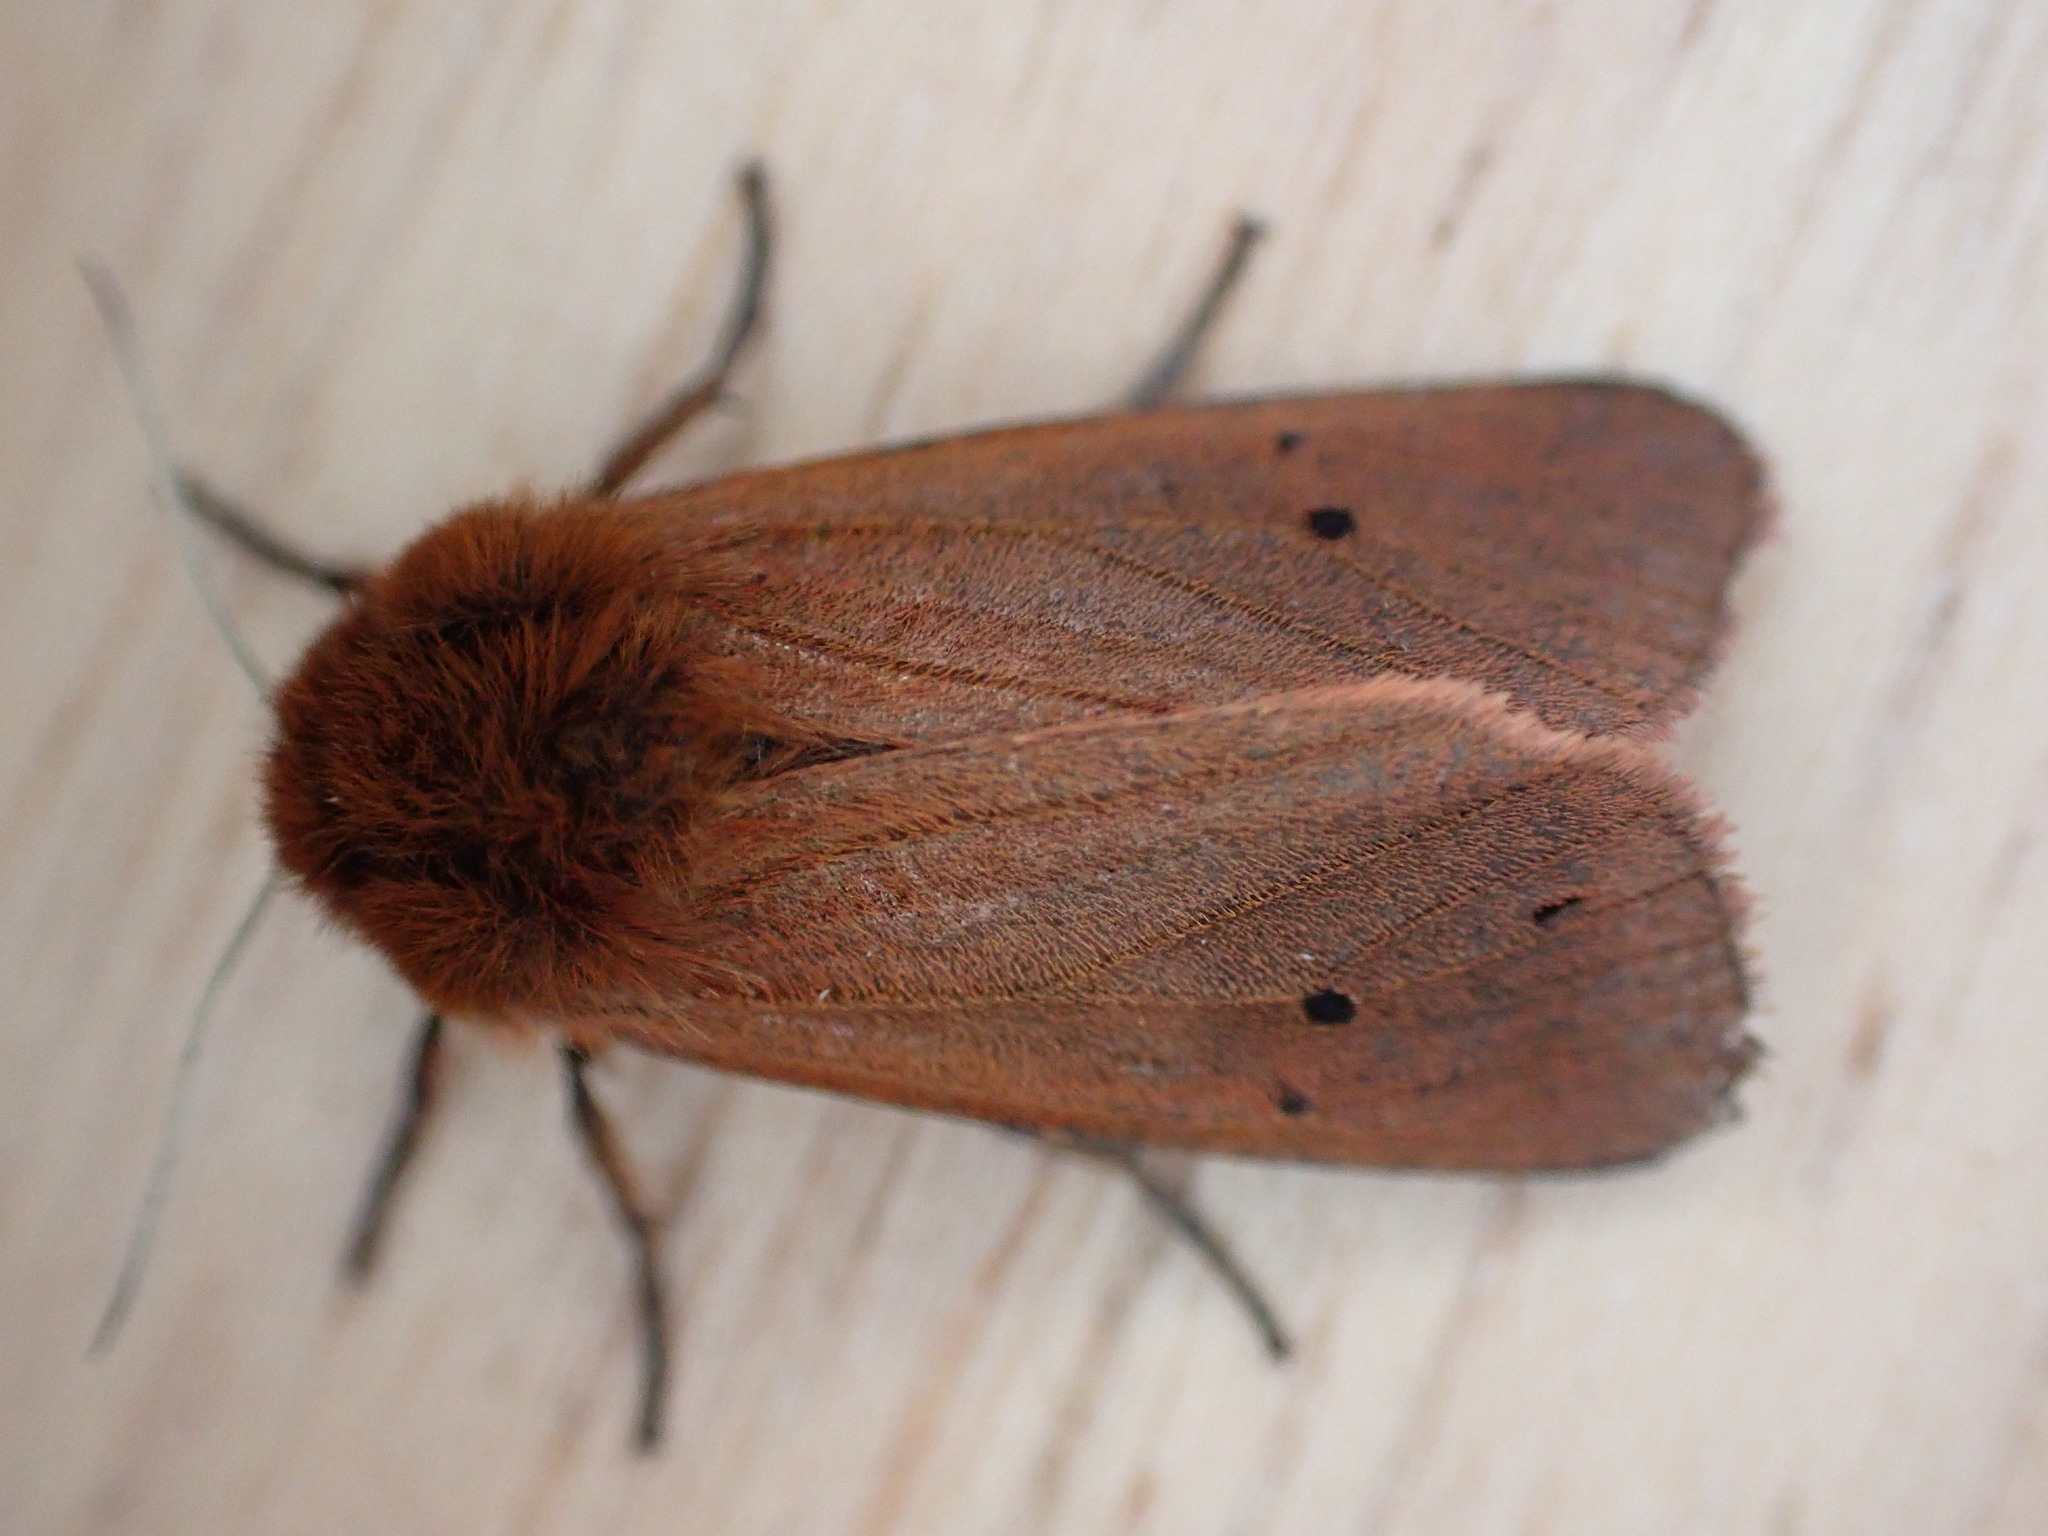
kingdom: Animalia
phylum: Arthropoda
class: Insecta
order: Lepidoptera
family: Erebidae
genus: Phragmatobia
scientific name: Phragmatobia fuliginosa
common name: Ruby tiger
